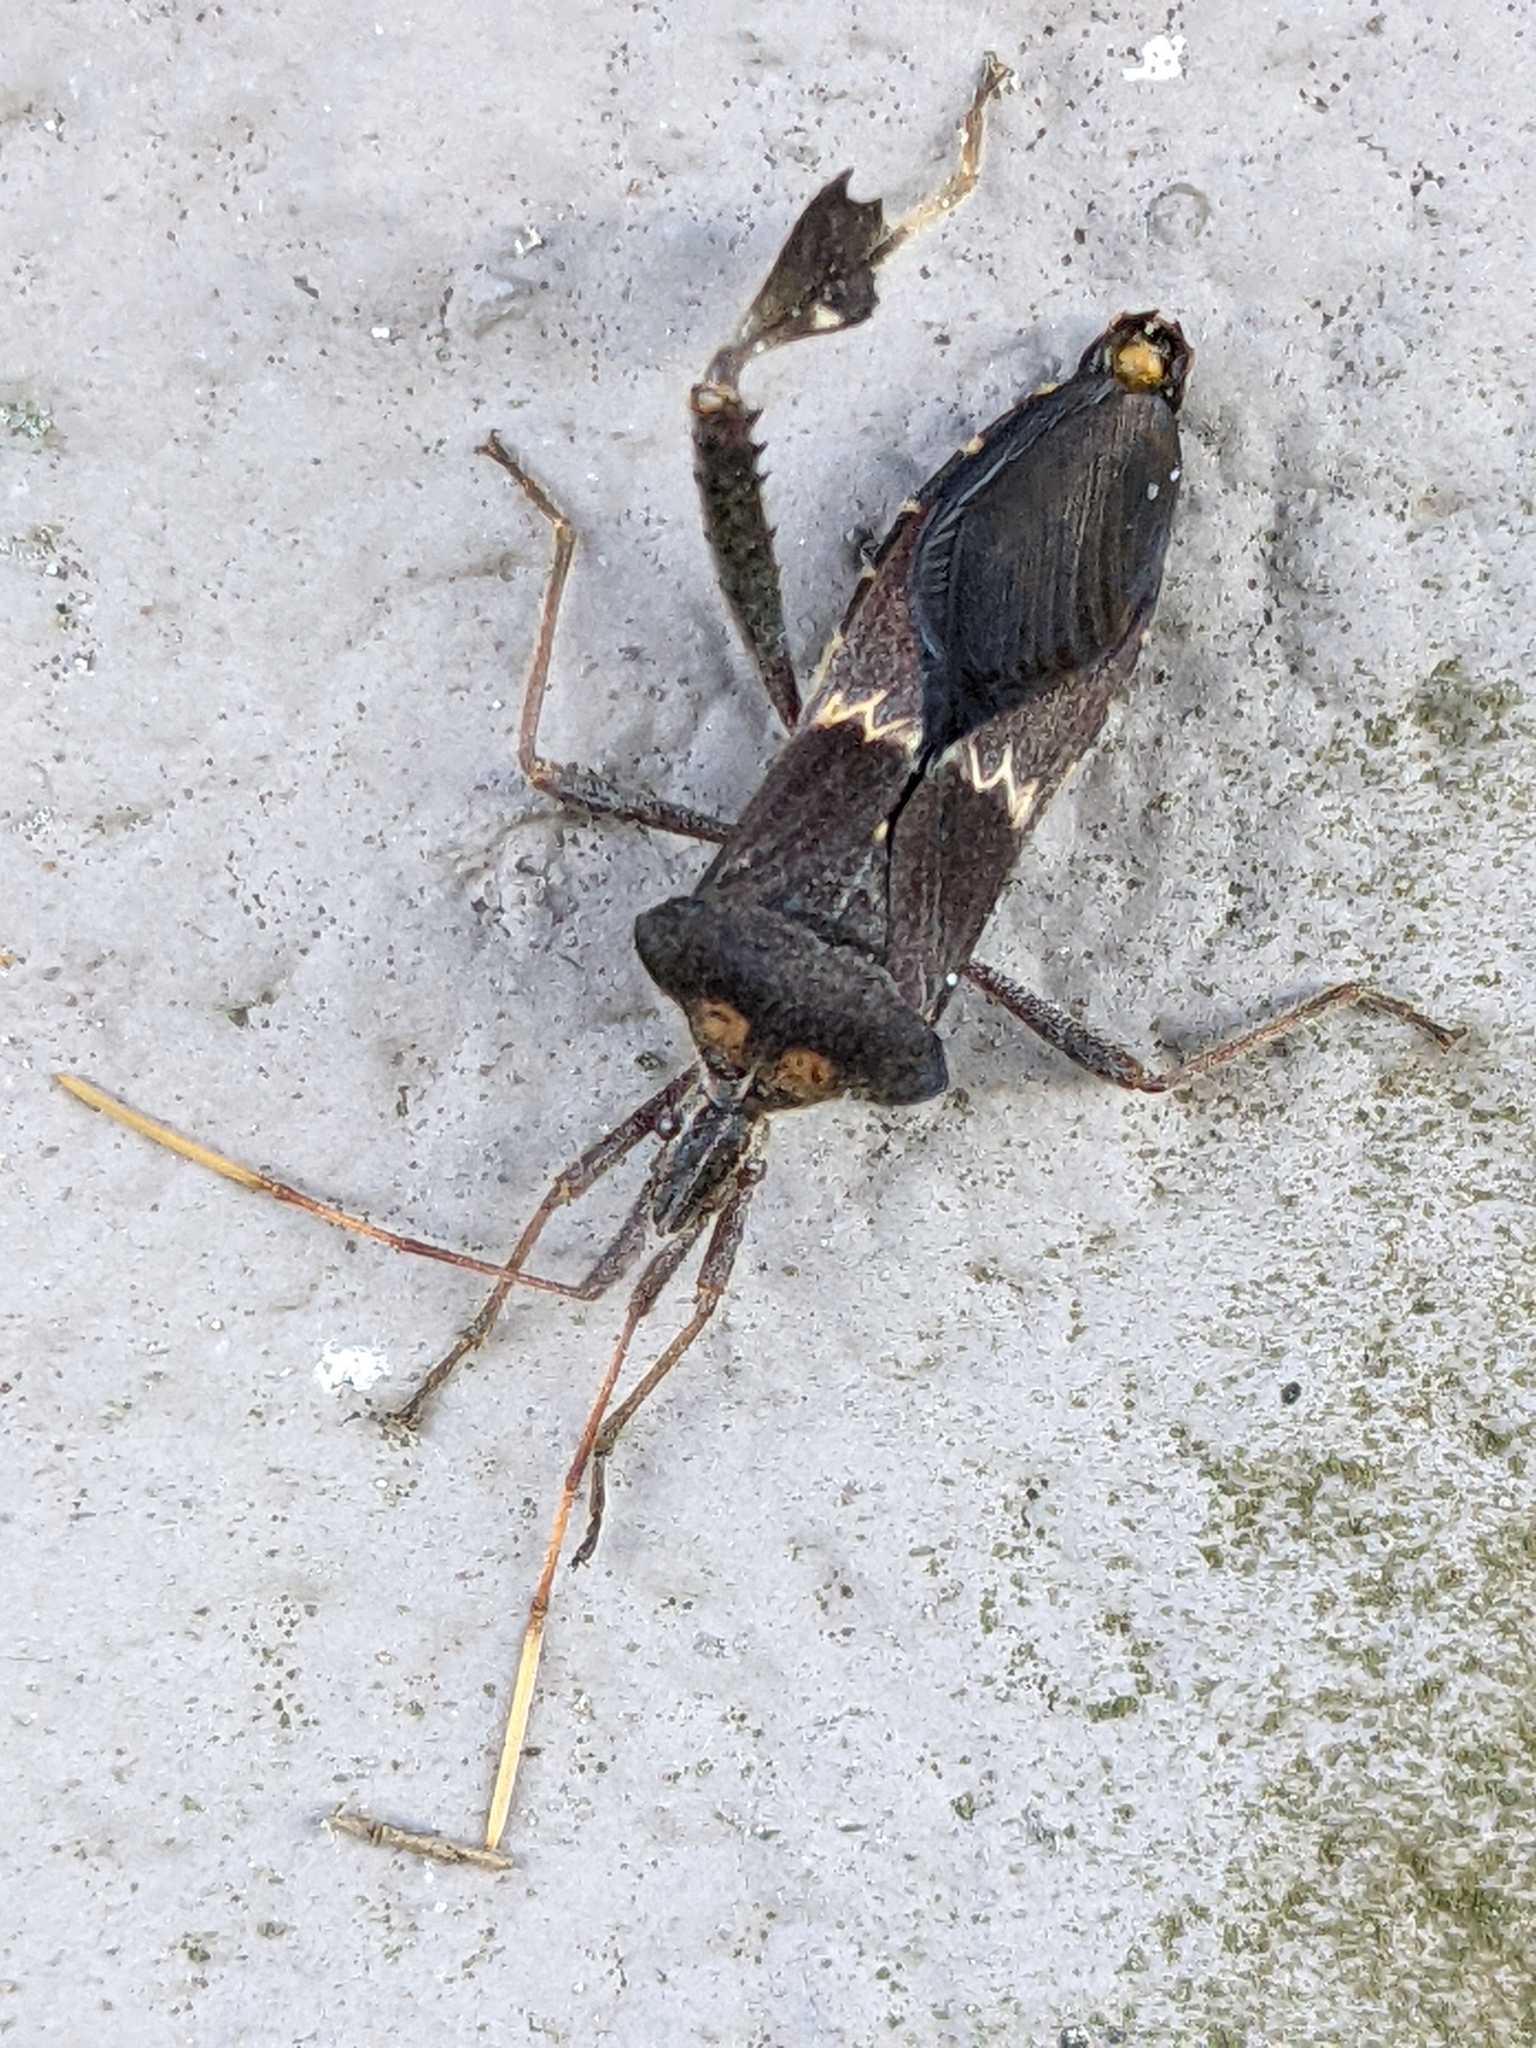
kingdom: Animalia
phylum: Arthropoda
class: Insecta
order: Hemiptera
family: Coreidae
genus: Leptoglossus
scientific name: Leptoglossus zonatus
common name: Large-legged bug
